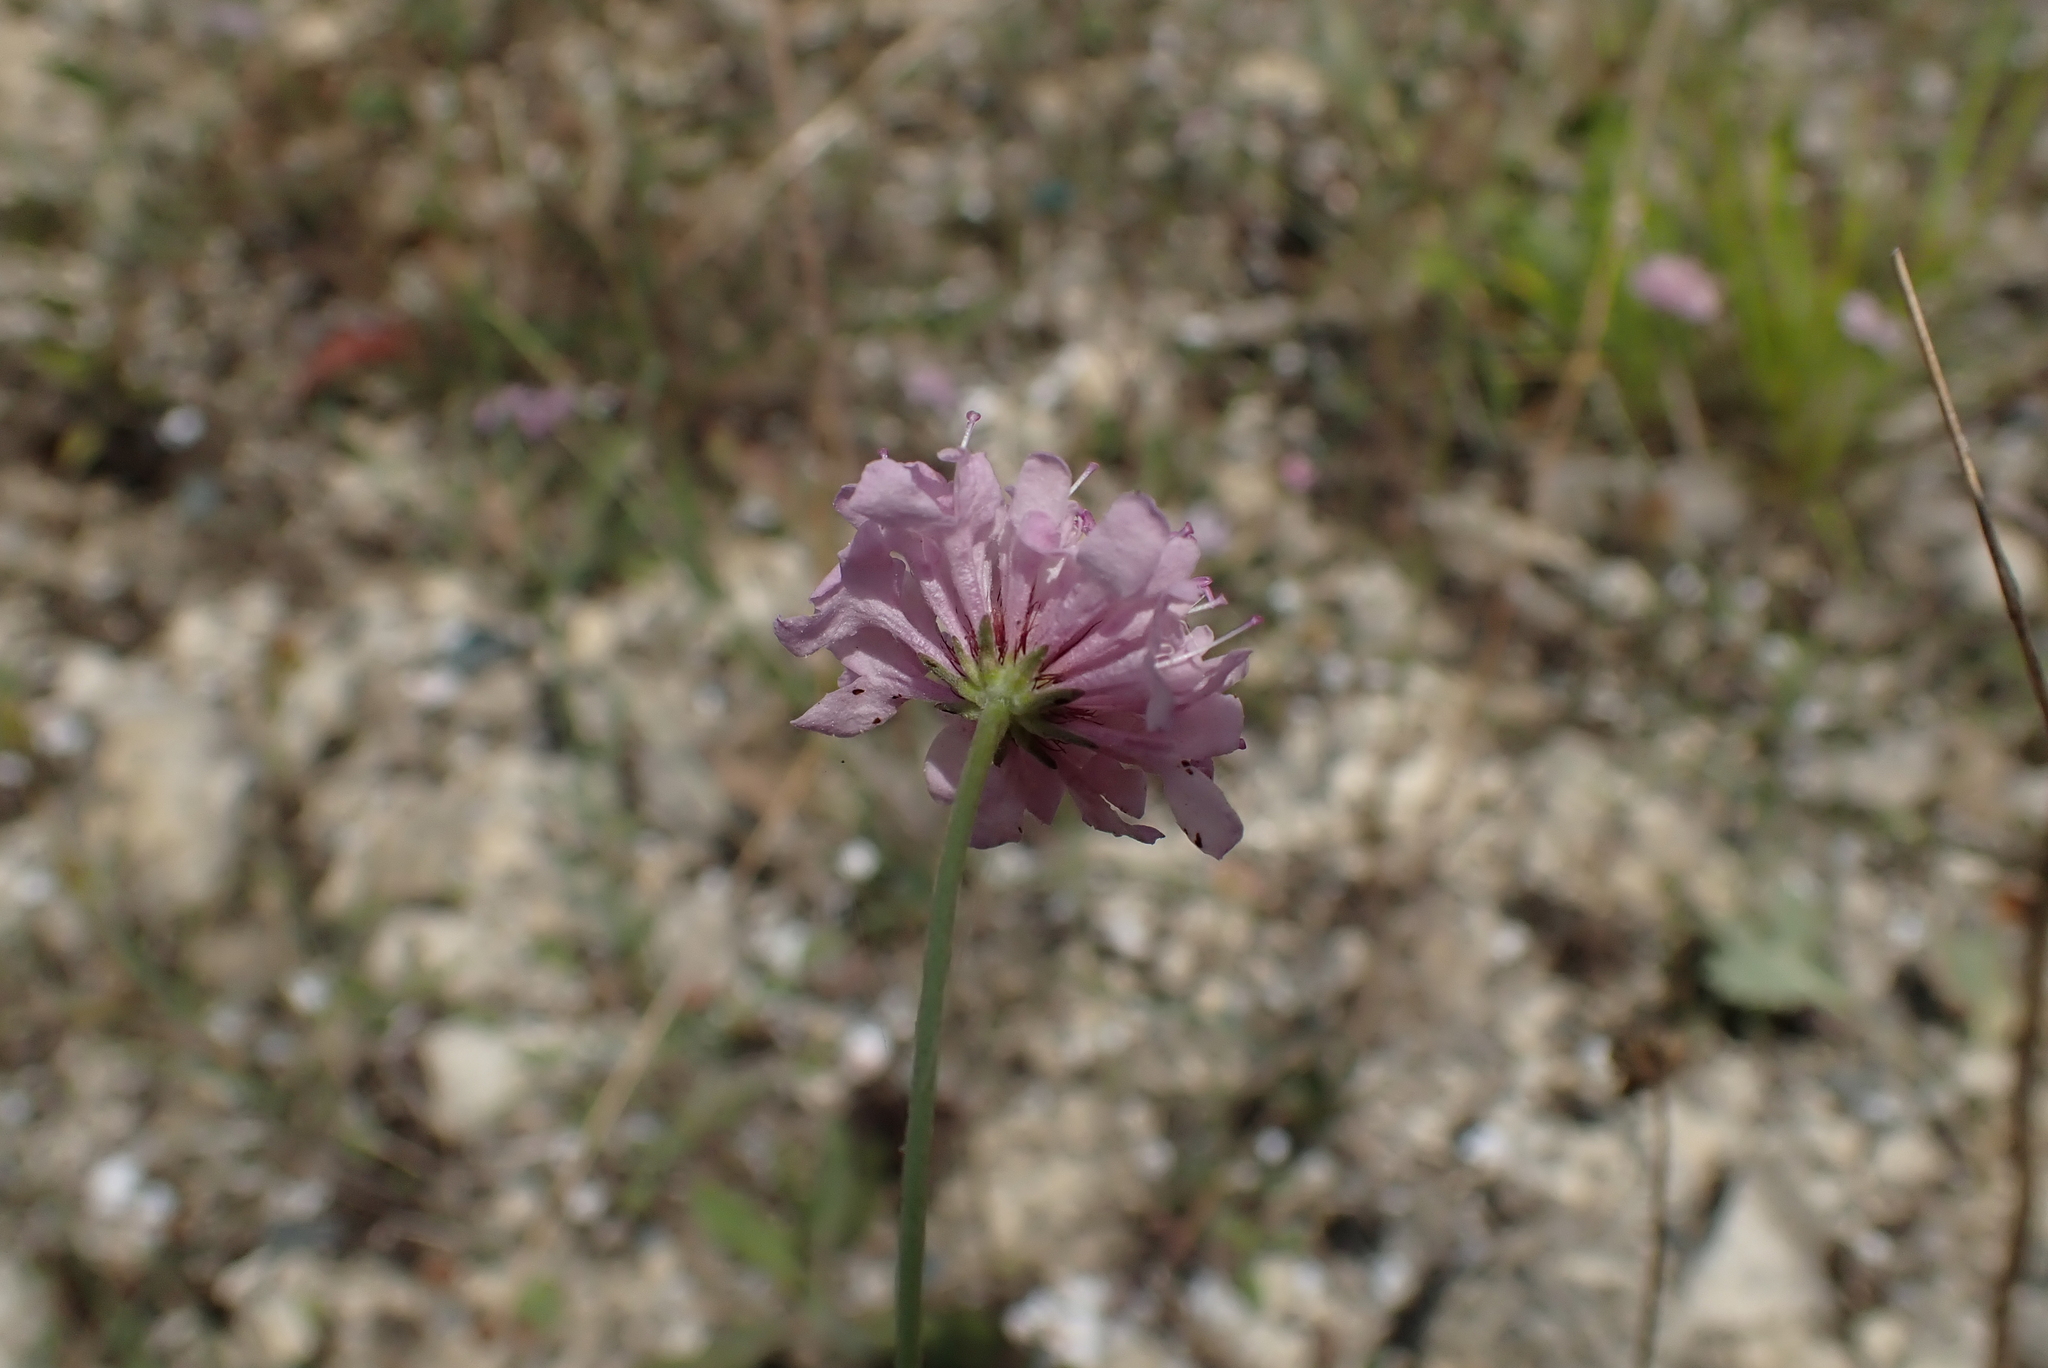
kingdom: Plantae
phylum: Tracheophyta
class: Magnoliopsida
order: Dipsacales
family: Caprifoliaceae
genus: Scabiosa
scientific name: Scabiosa columbaria
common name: Small scabious
